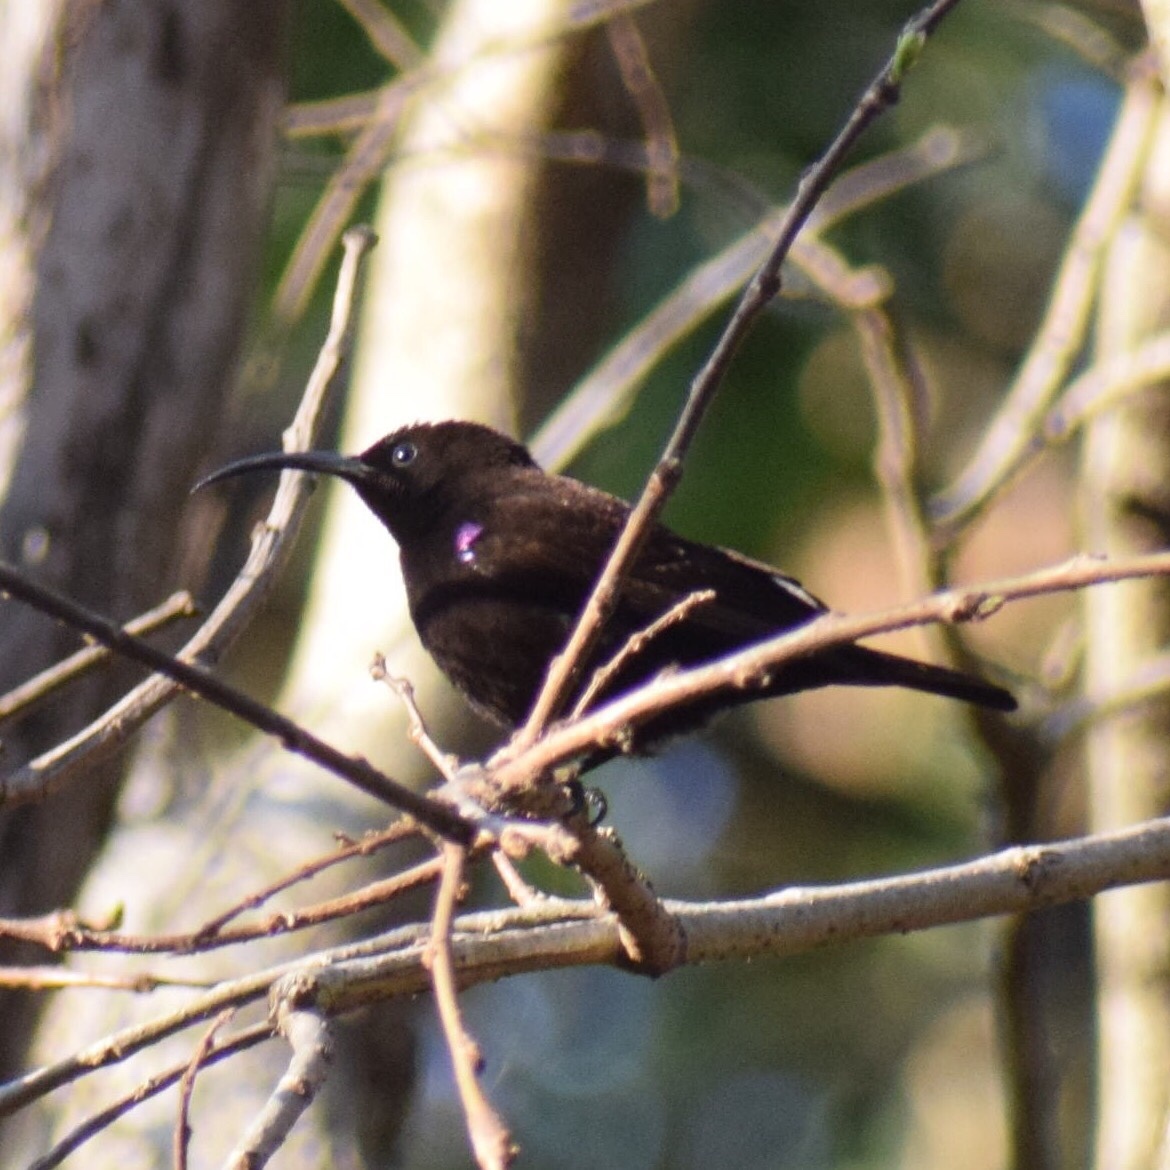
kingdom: Animalia
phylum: Chordata
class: Aves
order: Passeriformes
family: Nectariniidae
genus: Chalcomitra
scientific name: Chalcomitra amethystina
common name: Amethyst sunbird
